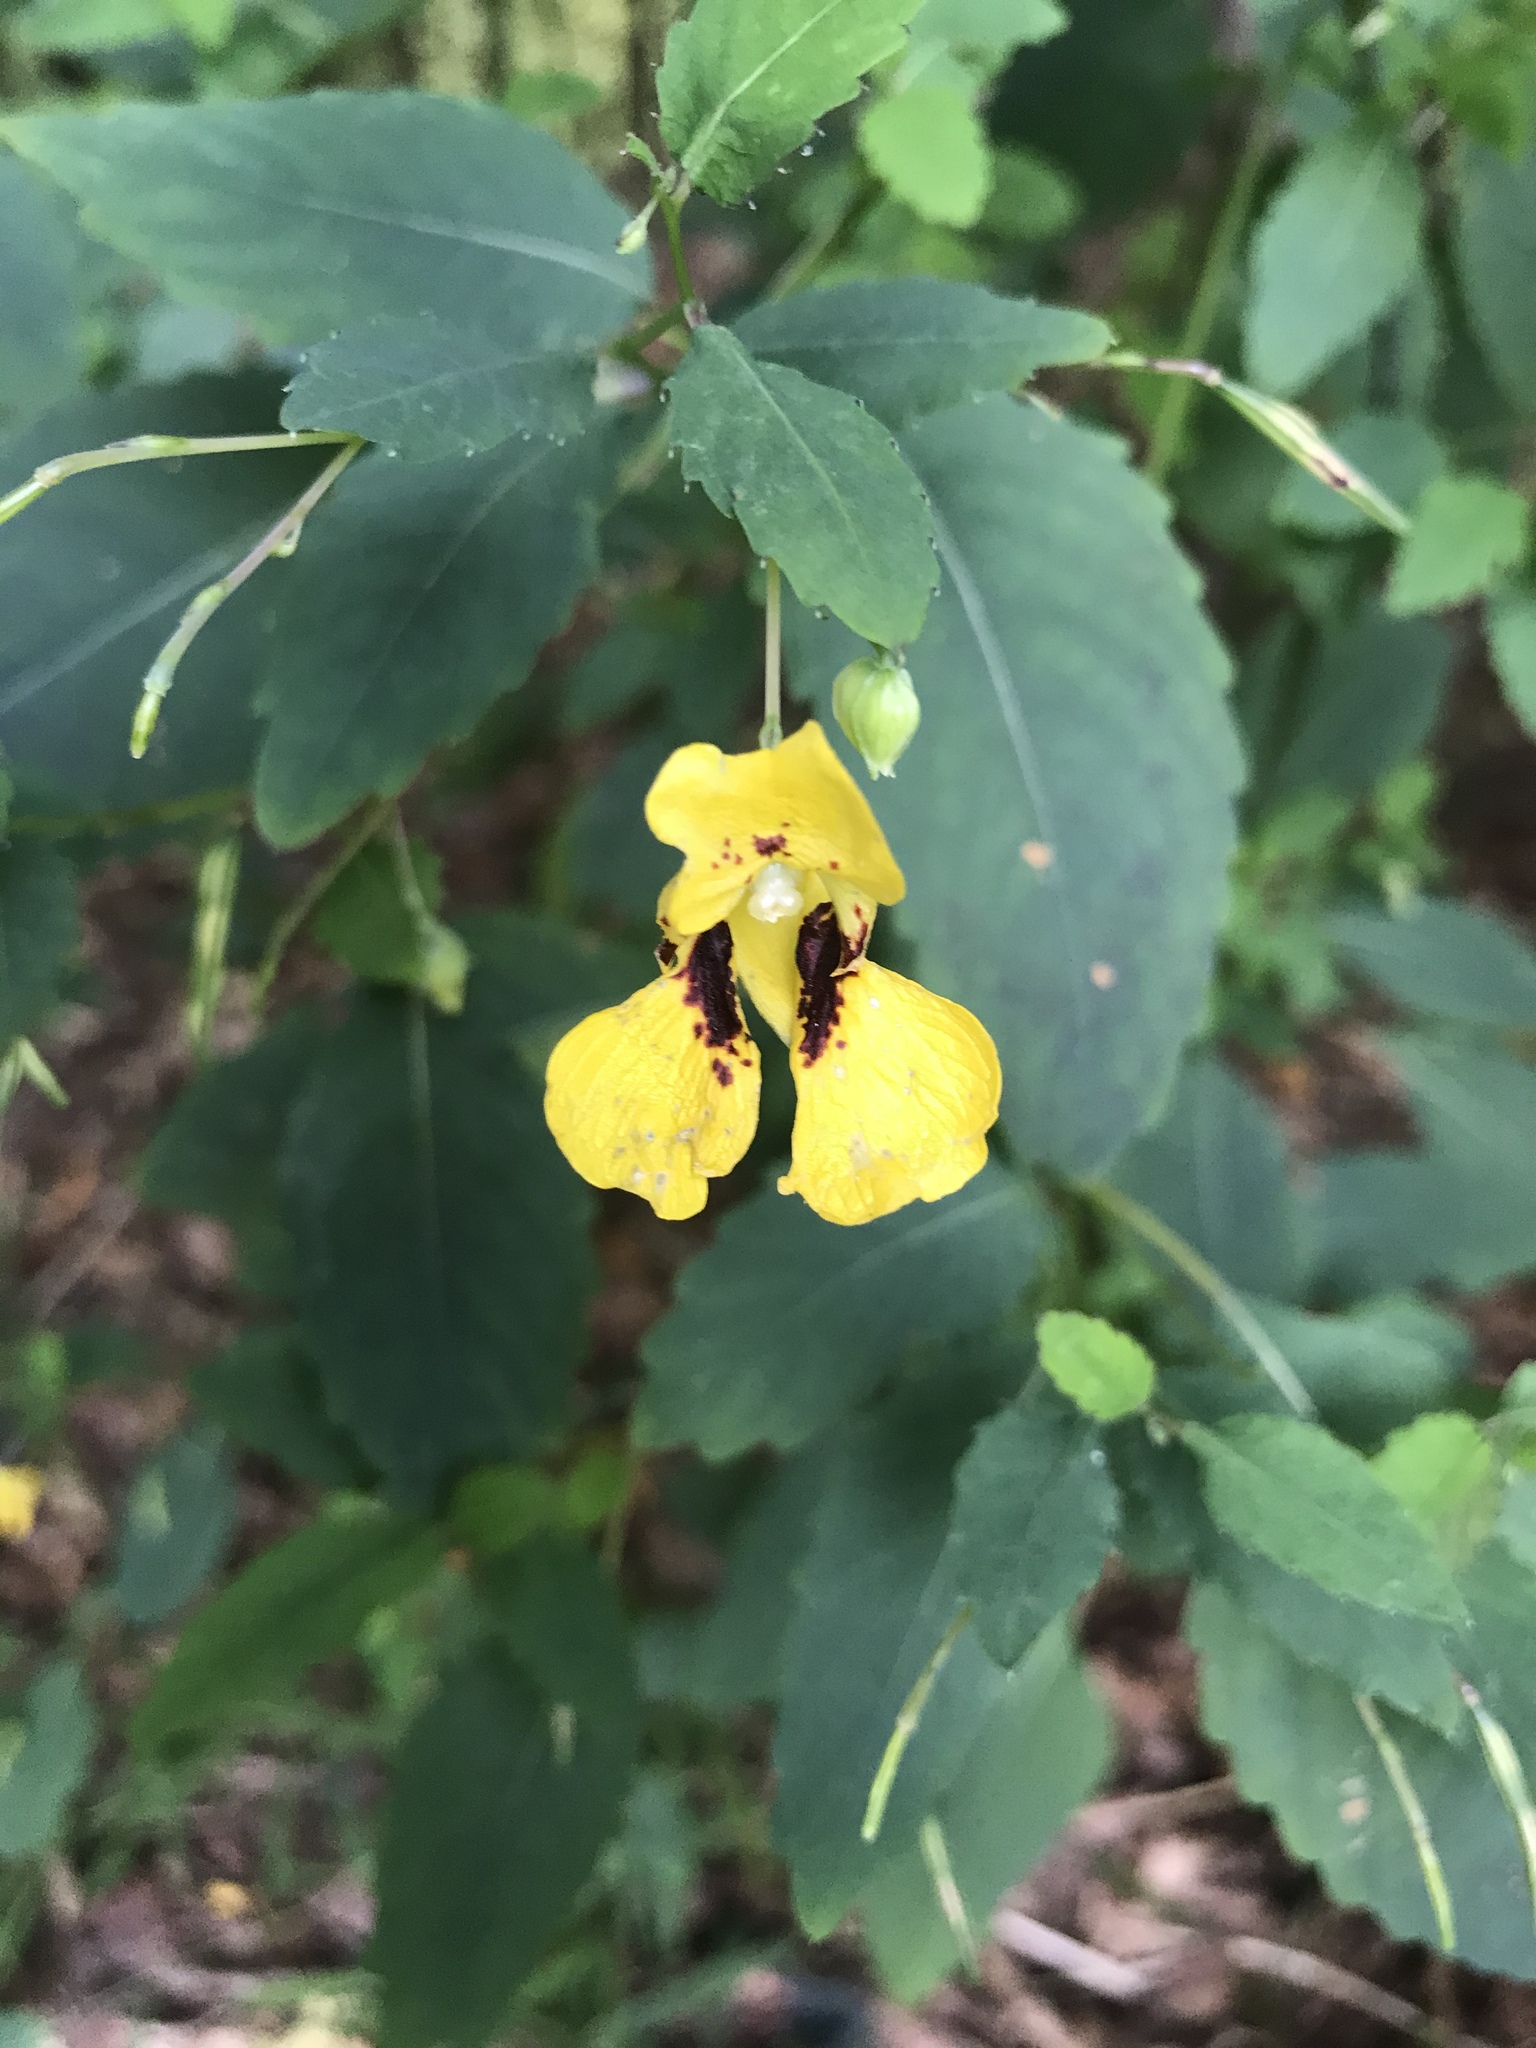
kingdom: Plantae
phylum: Tracheophyta
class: Magnoliopsida
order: Ericales
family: Balsaminaceae
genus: Impatiens
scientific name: Impatiens pallida
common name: Pale snapweed
